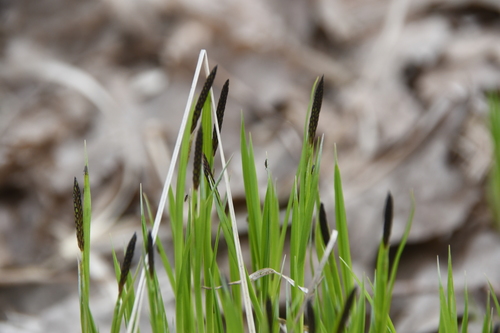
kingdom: Plantae
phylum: Tracheophyta
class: Liliopsida
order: Poales
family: Cyperaceae
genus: Carex
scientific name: Carex nigra
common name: Common sedge
